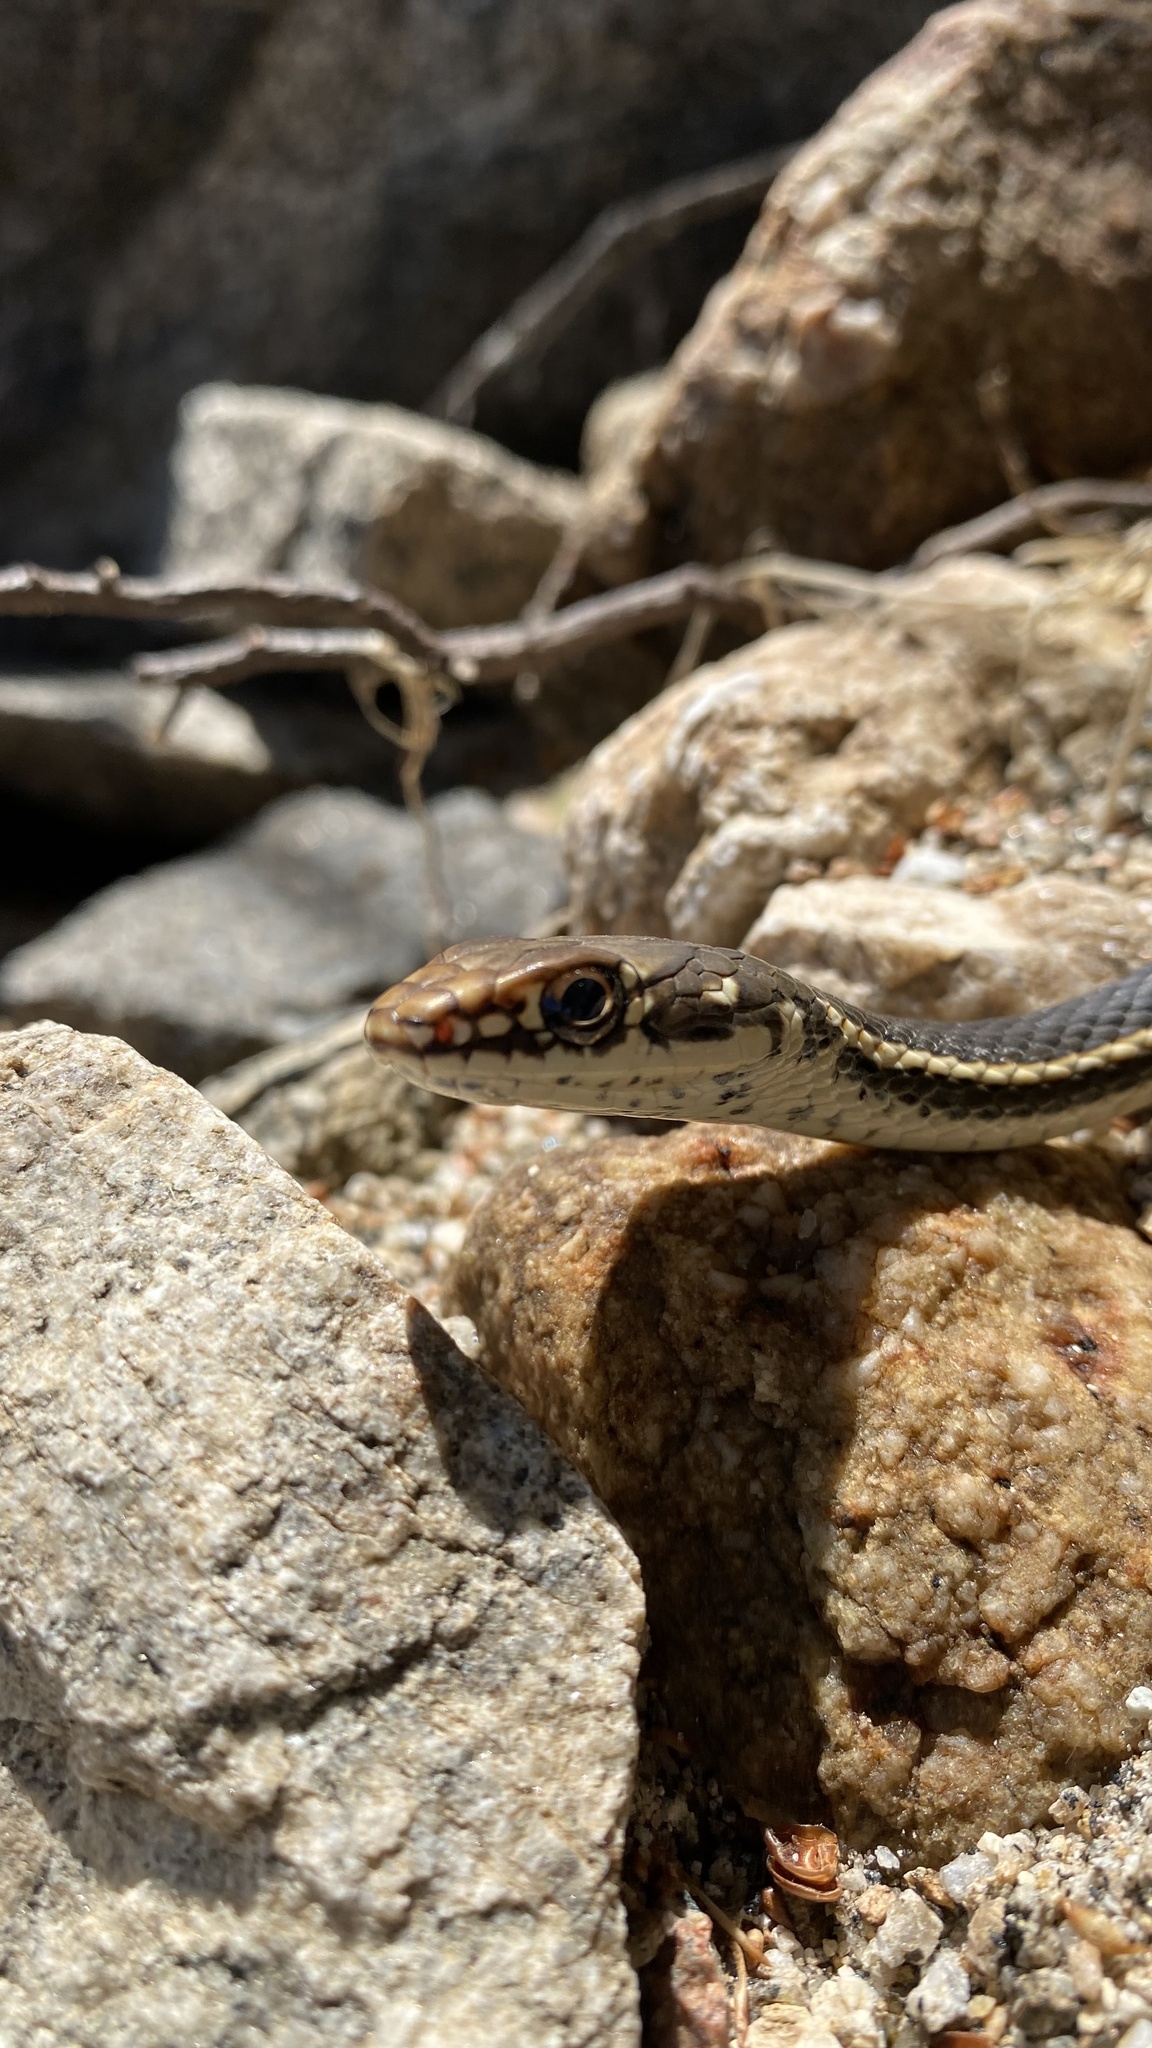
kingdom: Animalia
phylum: Chordata
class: Squamata
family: Colubridae
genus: Masticophis
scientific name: Masticophis lateralis
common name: Striped racer
